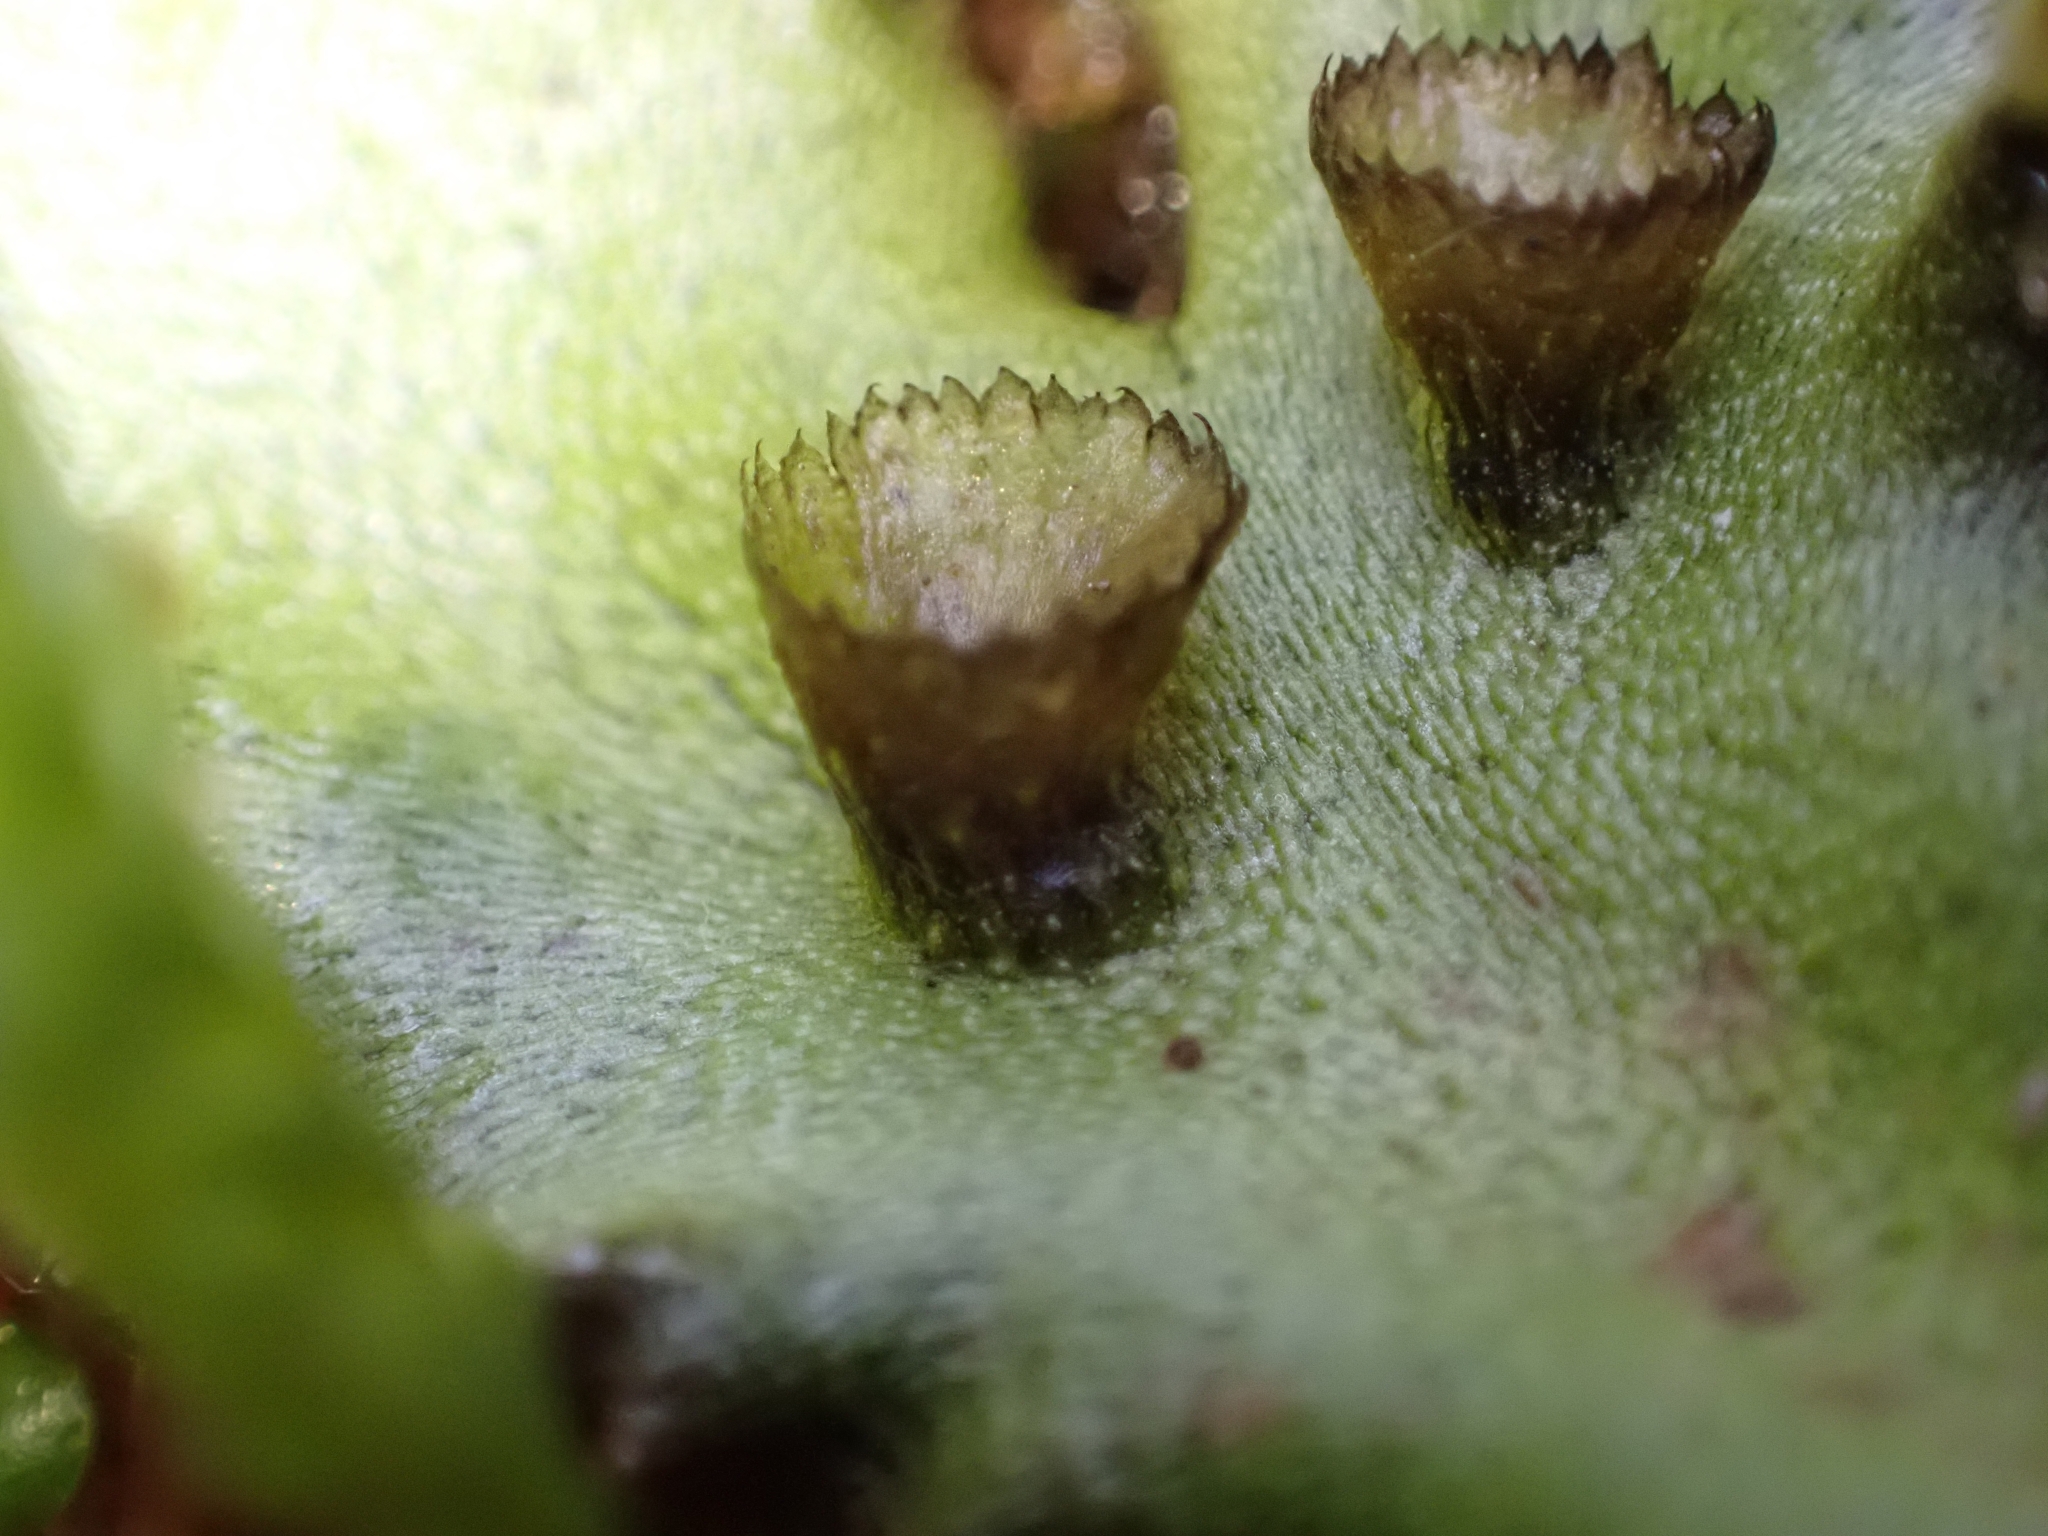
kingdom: Plantae
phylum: Marchantiophyta
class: Marchantiopsida
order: Marchantiales
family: Marchantiaceae
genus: Marchantia
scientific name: Marchantia polymorpha
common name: Common liverwort
